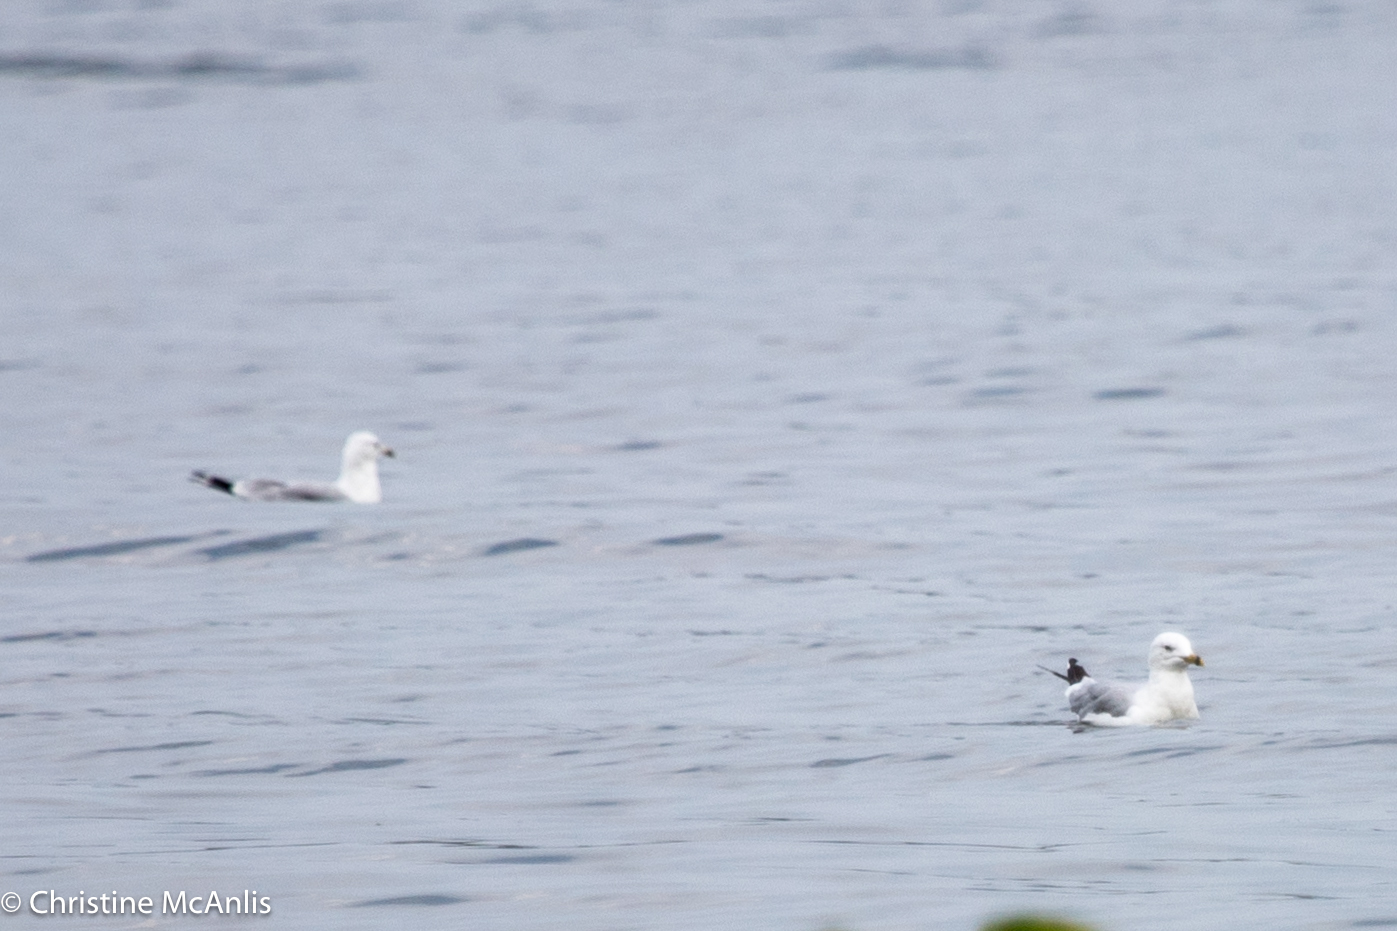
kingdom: Animalia
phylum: Chordata
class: Aves
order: Charadriiformes
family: Laridae
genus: Larus
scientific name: Larus delawarensis
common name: Ring-billed gull
